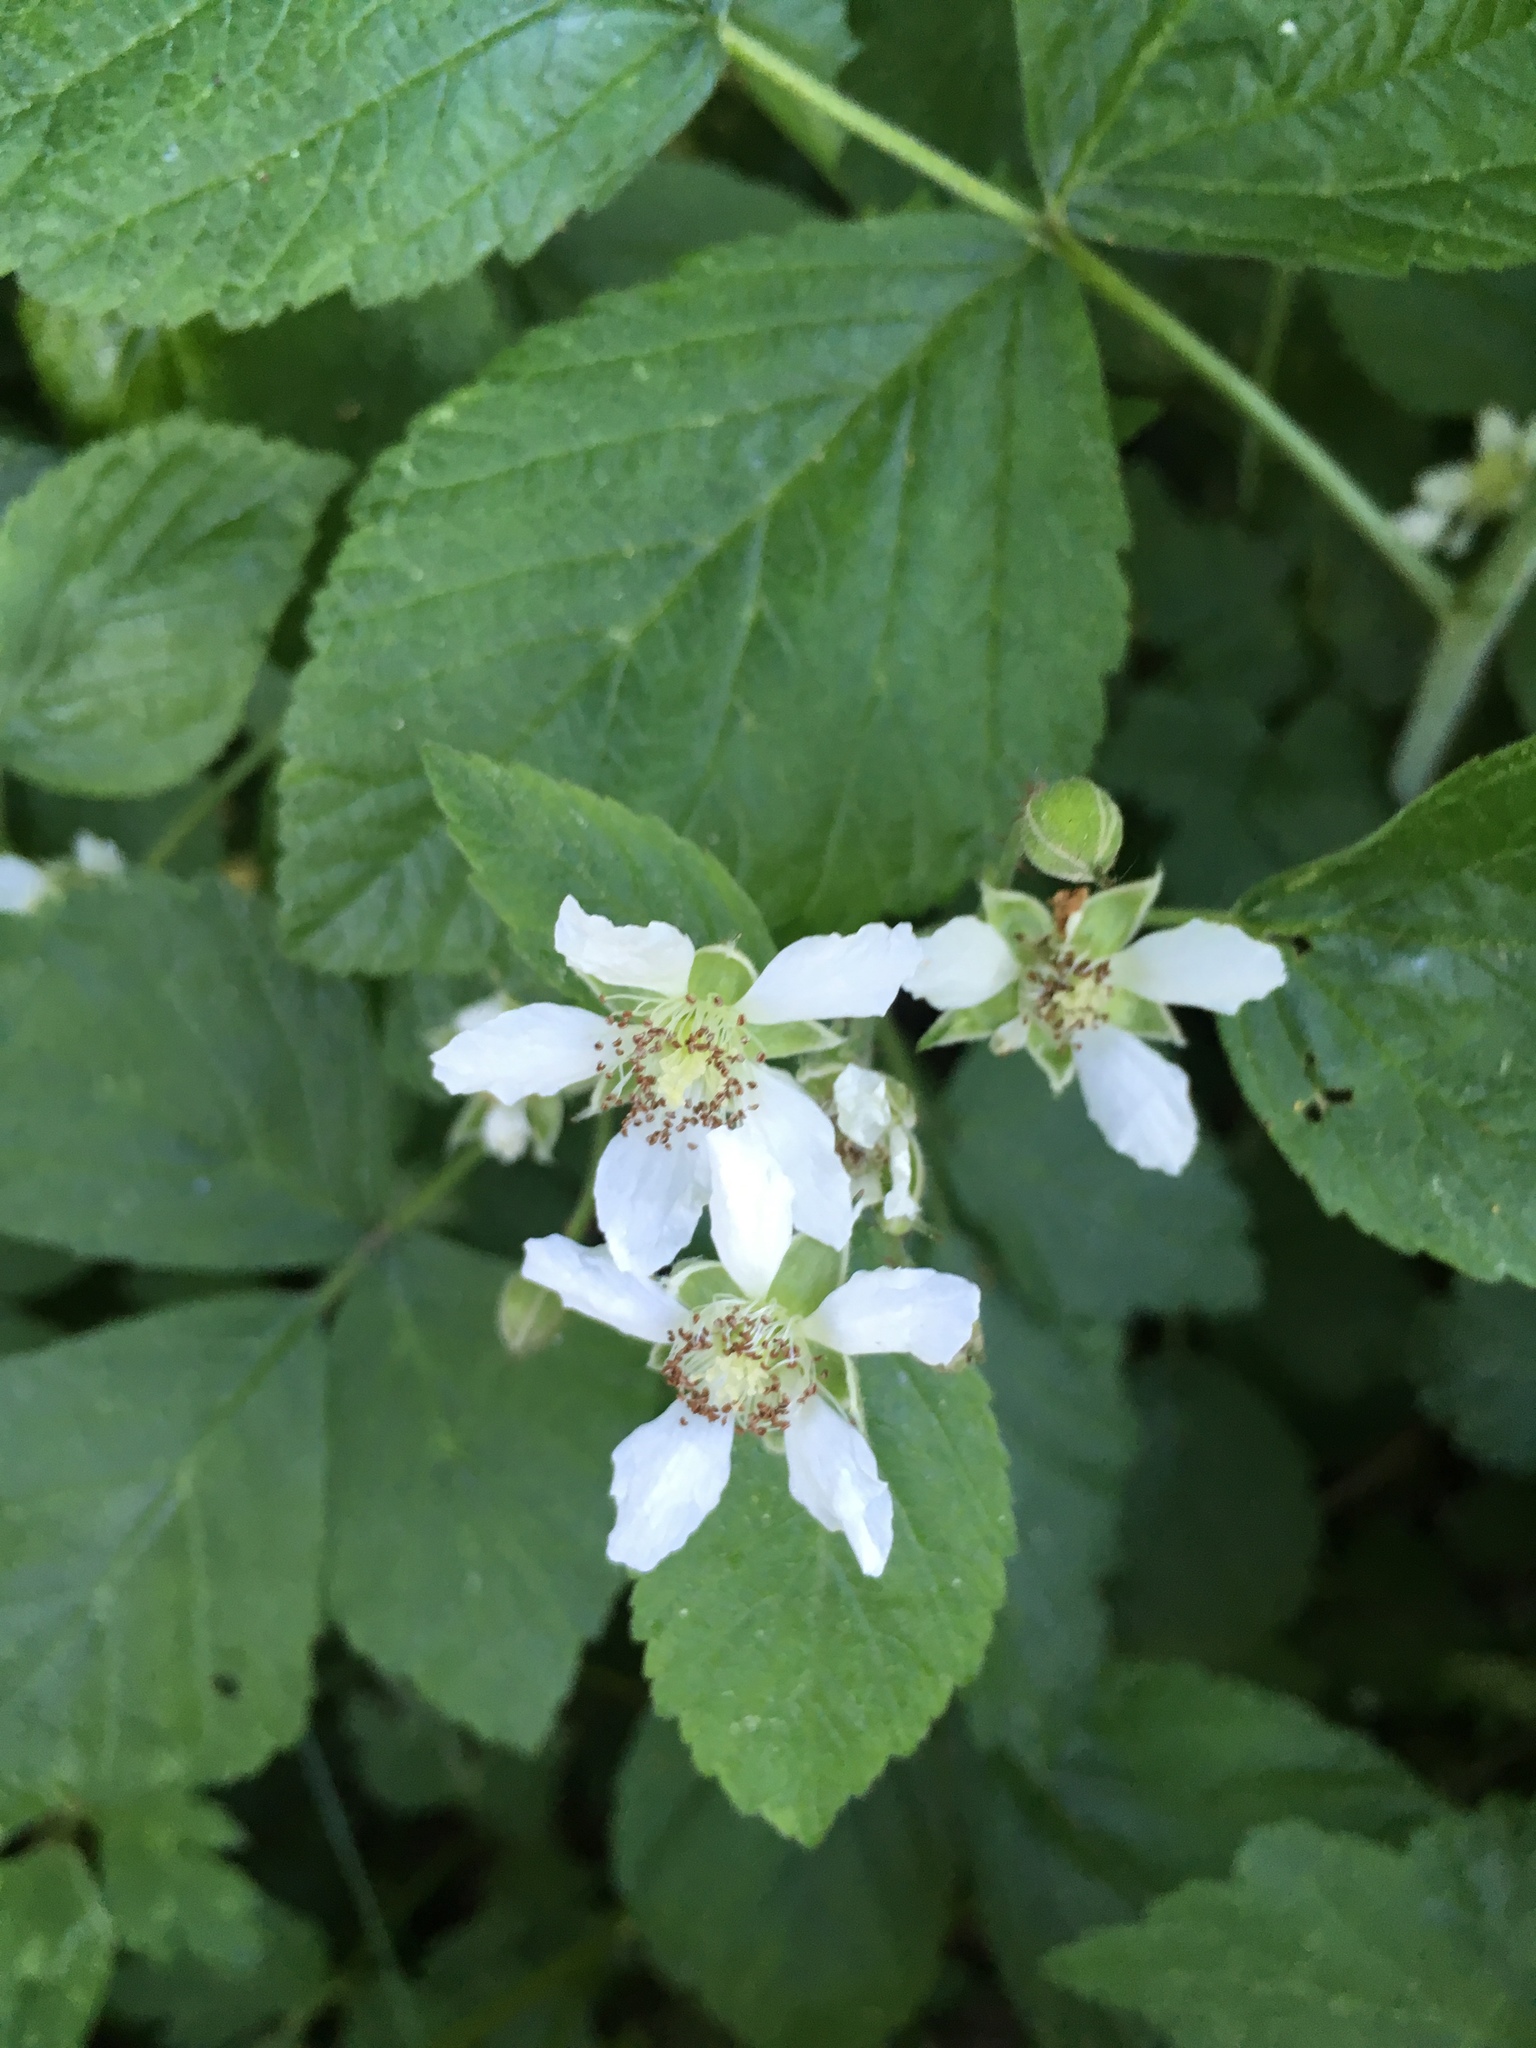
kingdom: Plantae
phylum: Tracheophyta
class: Magnoliopsida
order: Rosales
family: Rosaceae
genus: Rubus
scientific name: Rubus caesius
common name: Dewberry
